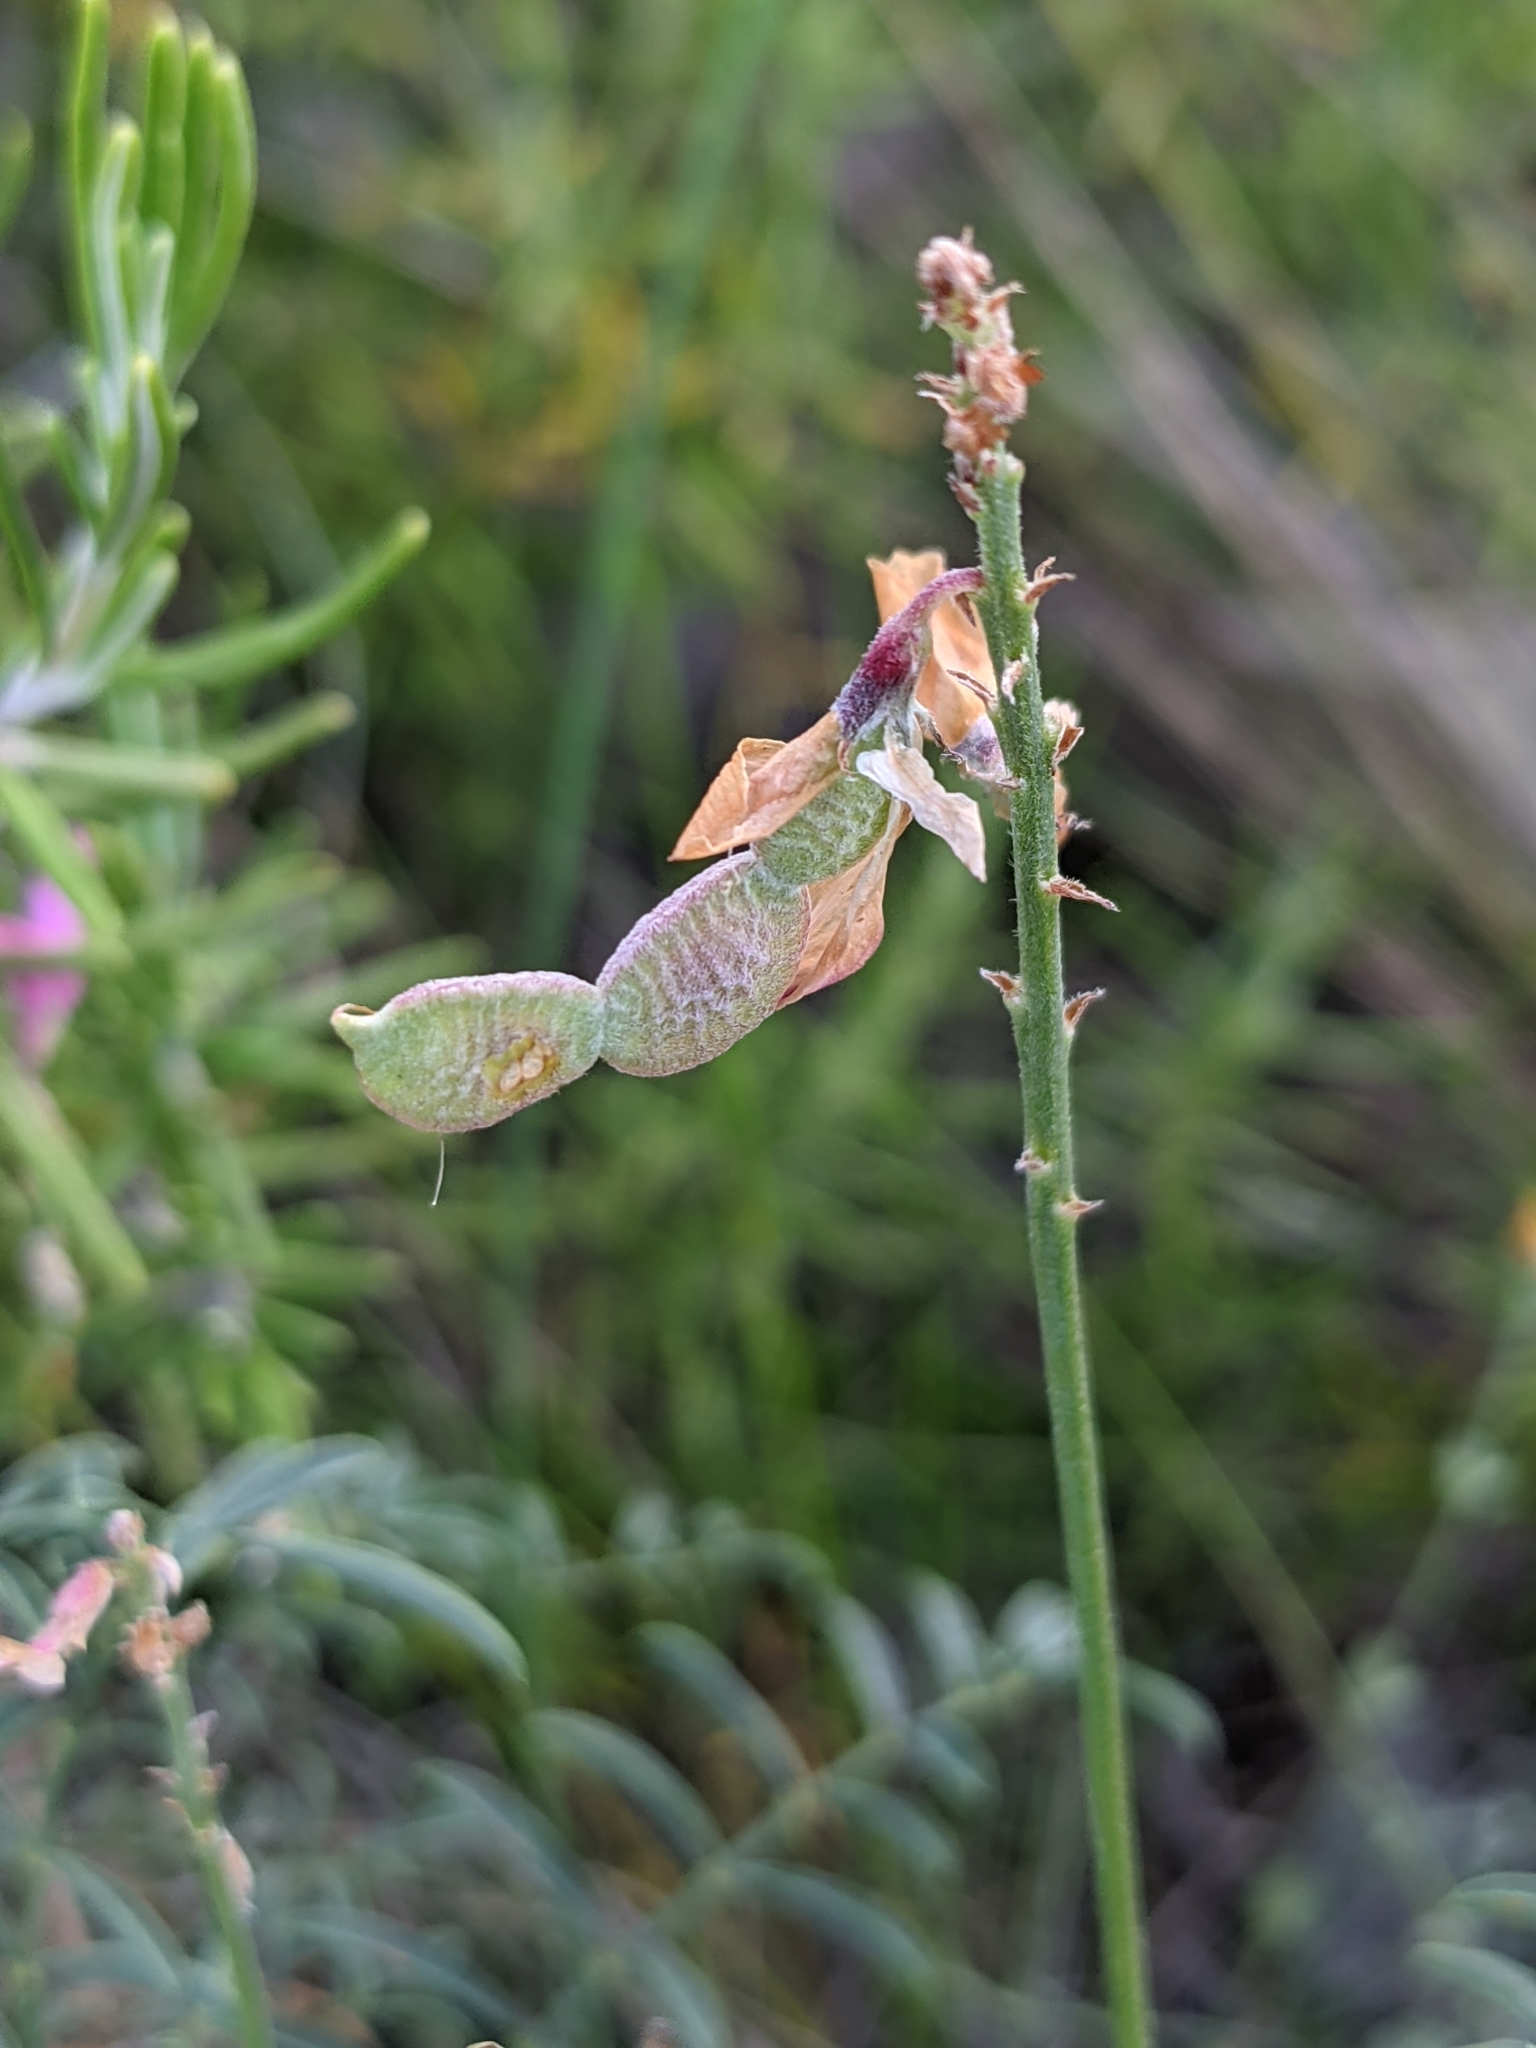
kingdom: Plantae
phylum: Tracheophyta
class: Magnoliopsida
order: Fabales
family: Fabaceae
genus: Hedysarum
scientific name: Hedysarum boveanum
